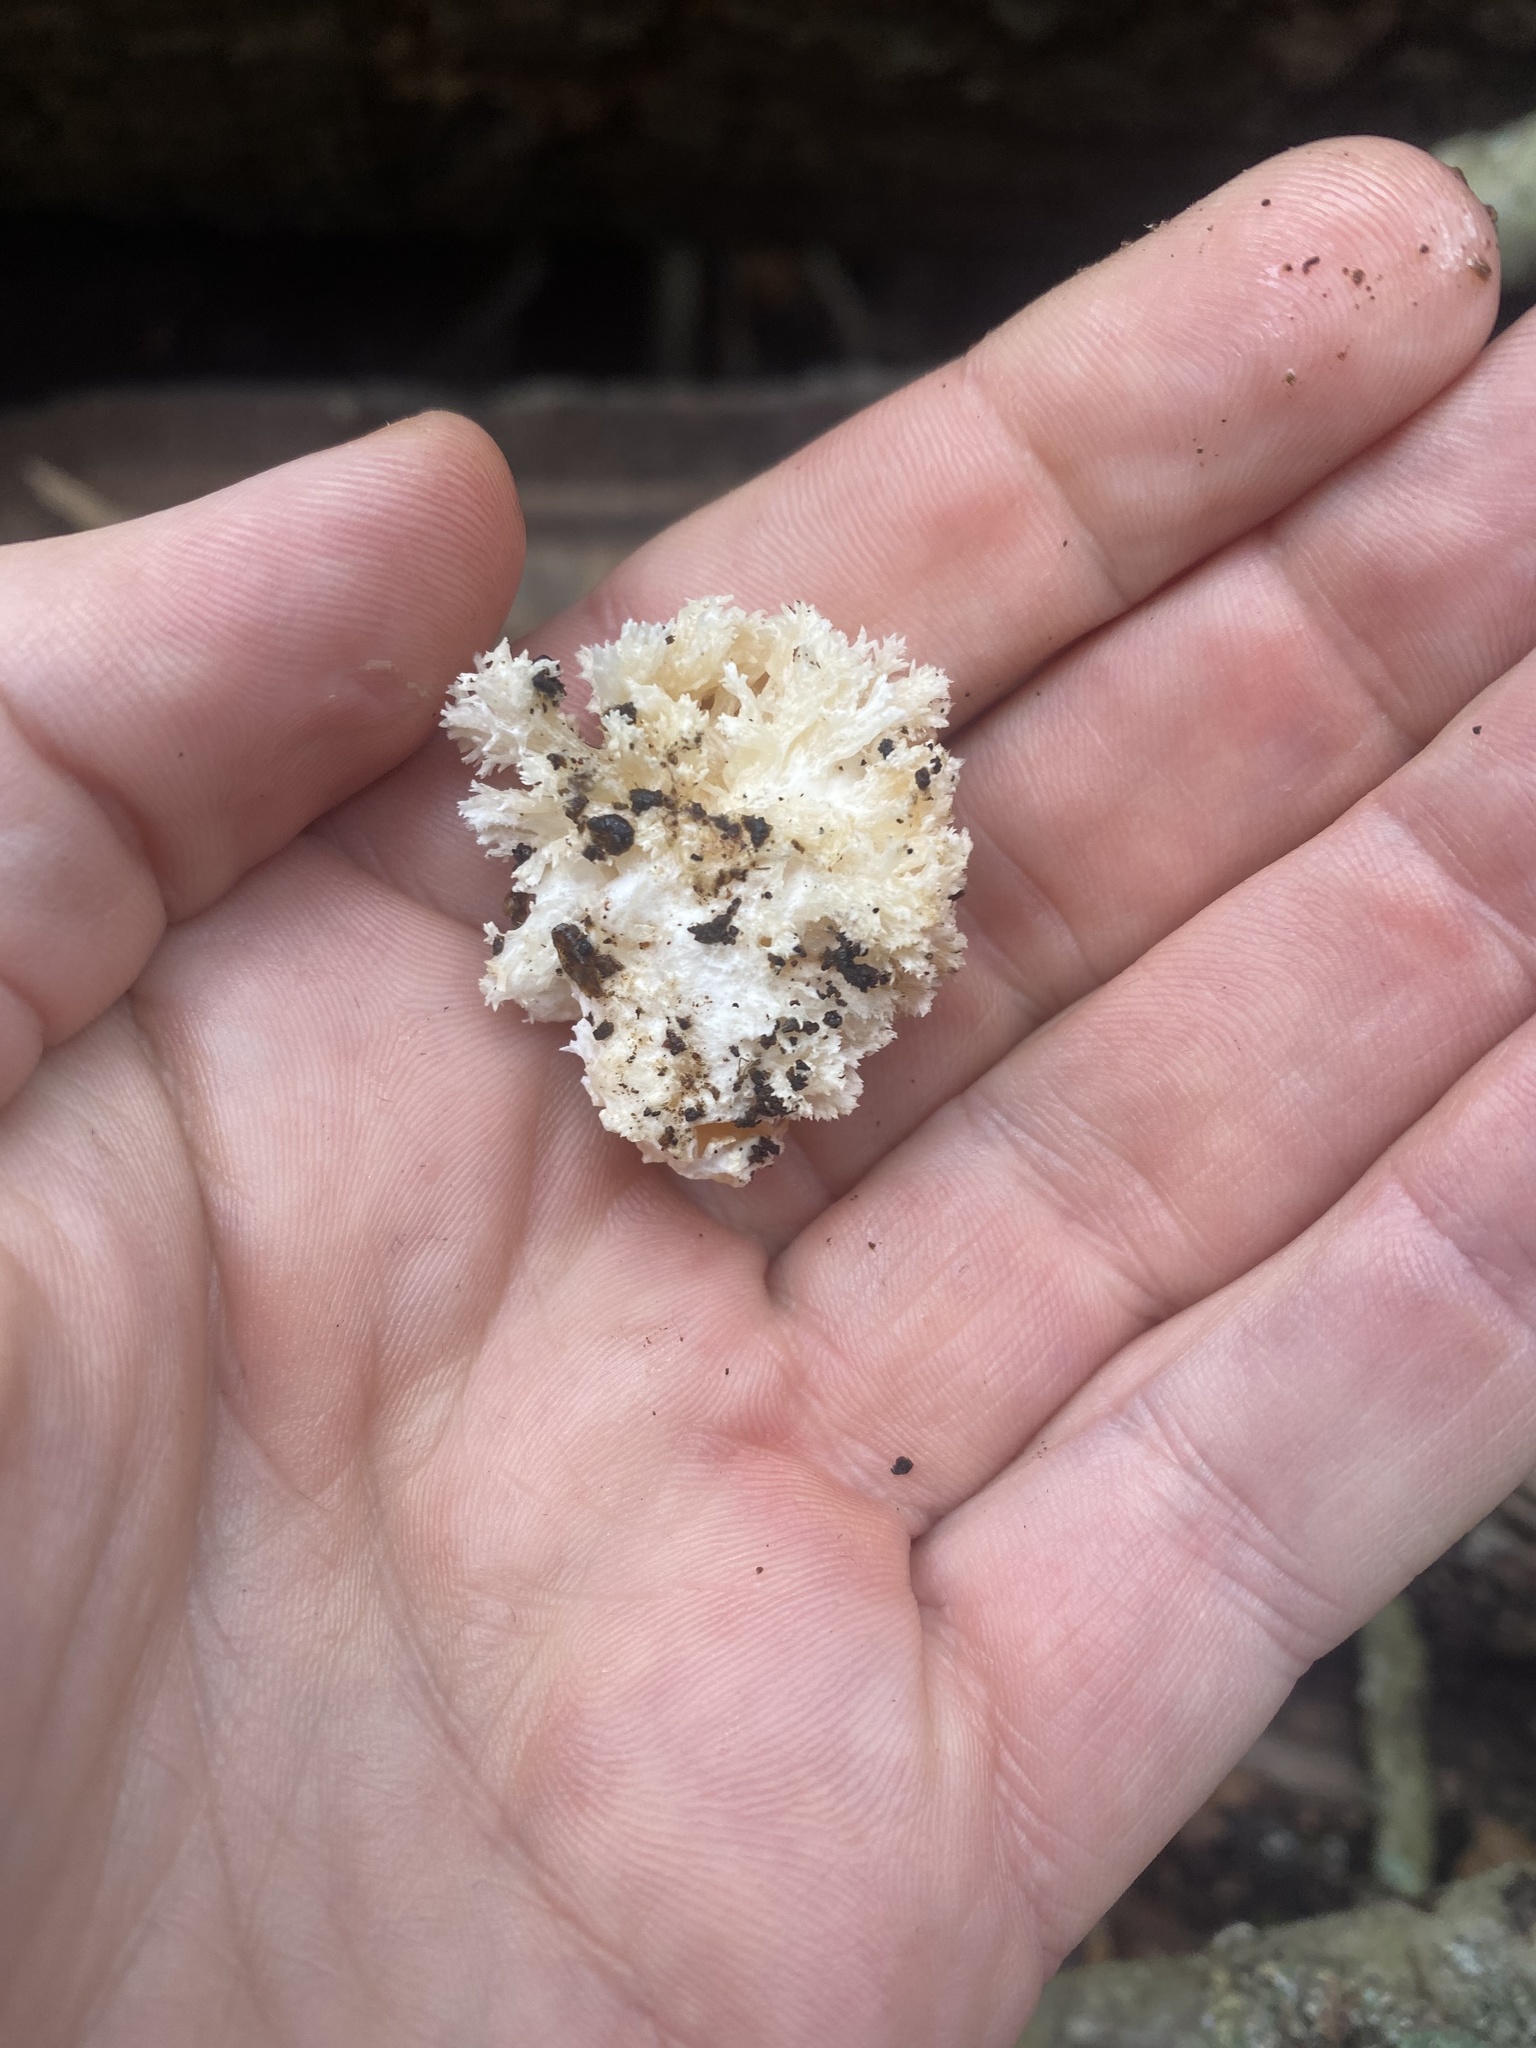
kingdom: Fungi
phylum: Basidiomycota
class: Agaricomycetes
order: Russulales
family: Hericiaceae
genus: Hericium
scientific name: Hericium coralloides
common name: Coral tooth
